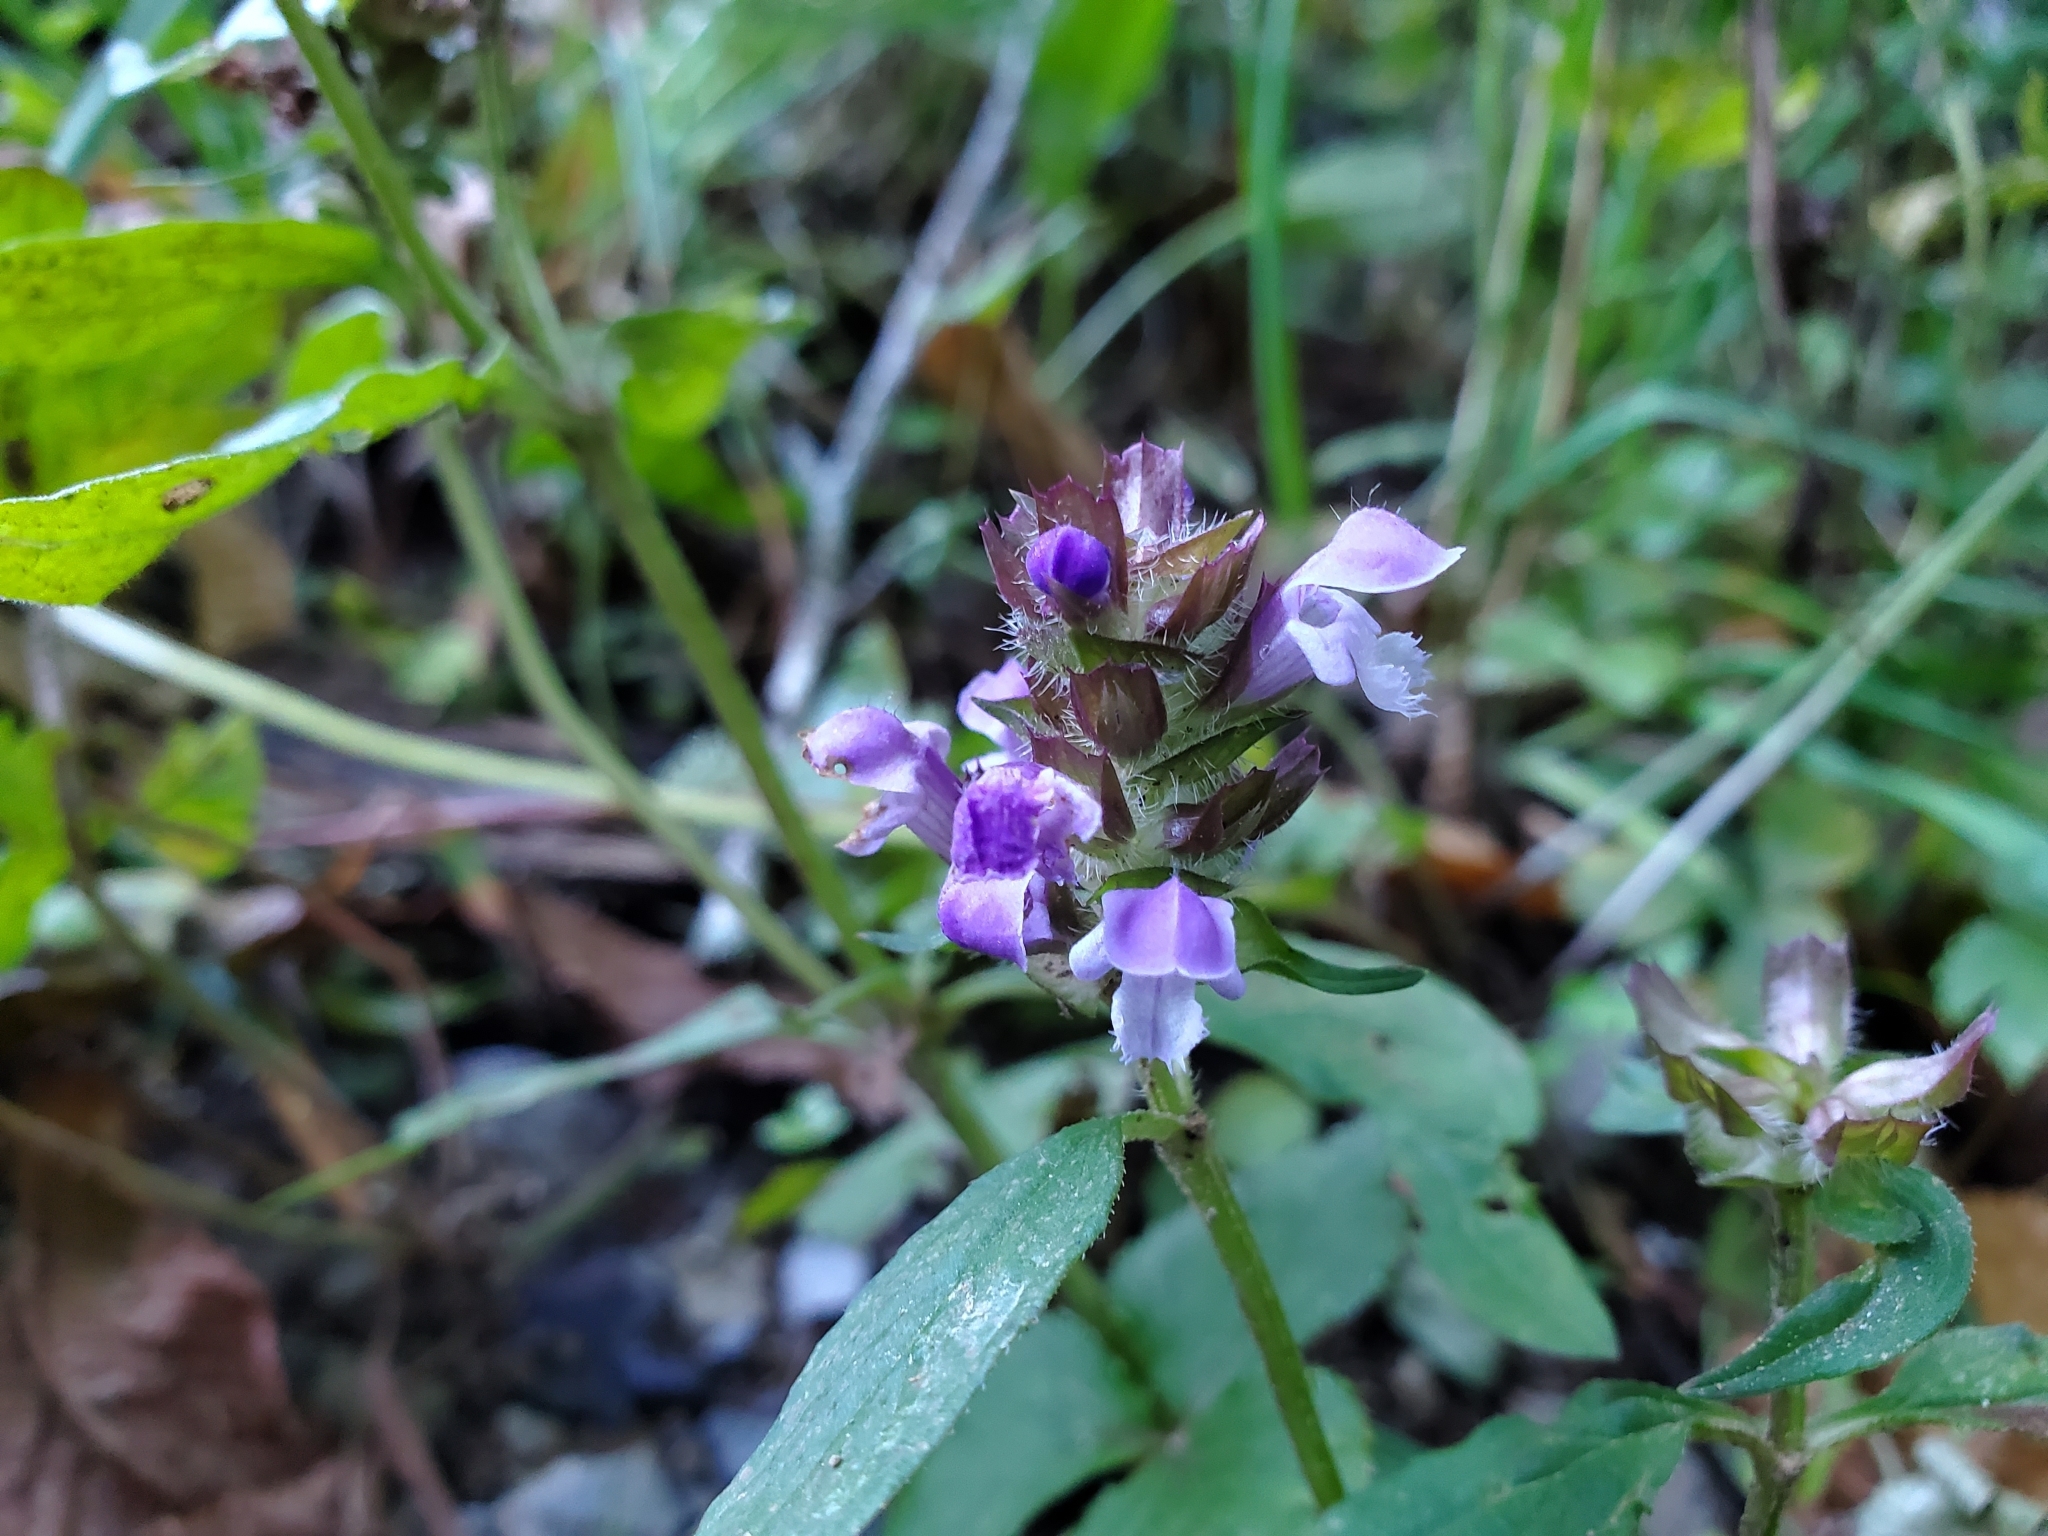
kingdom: Plantae
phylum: Tracheophyta
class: Magnoliopsida
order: Lamiales
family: Lamiaceae
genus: Prunella
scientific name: Prunella vulgaris
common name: Heal-all
